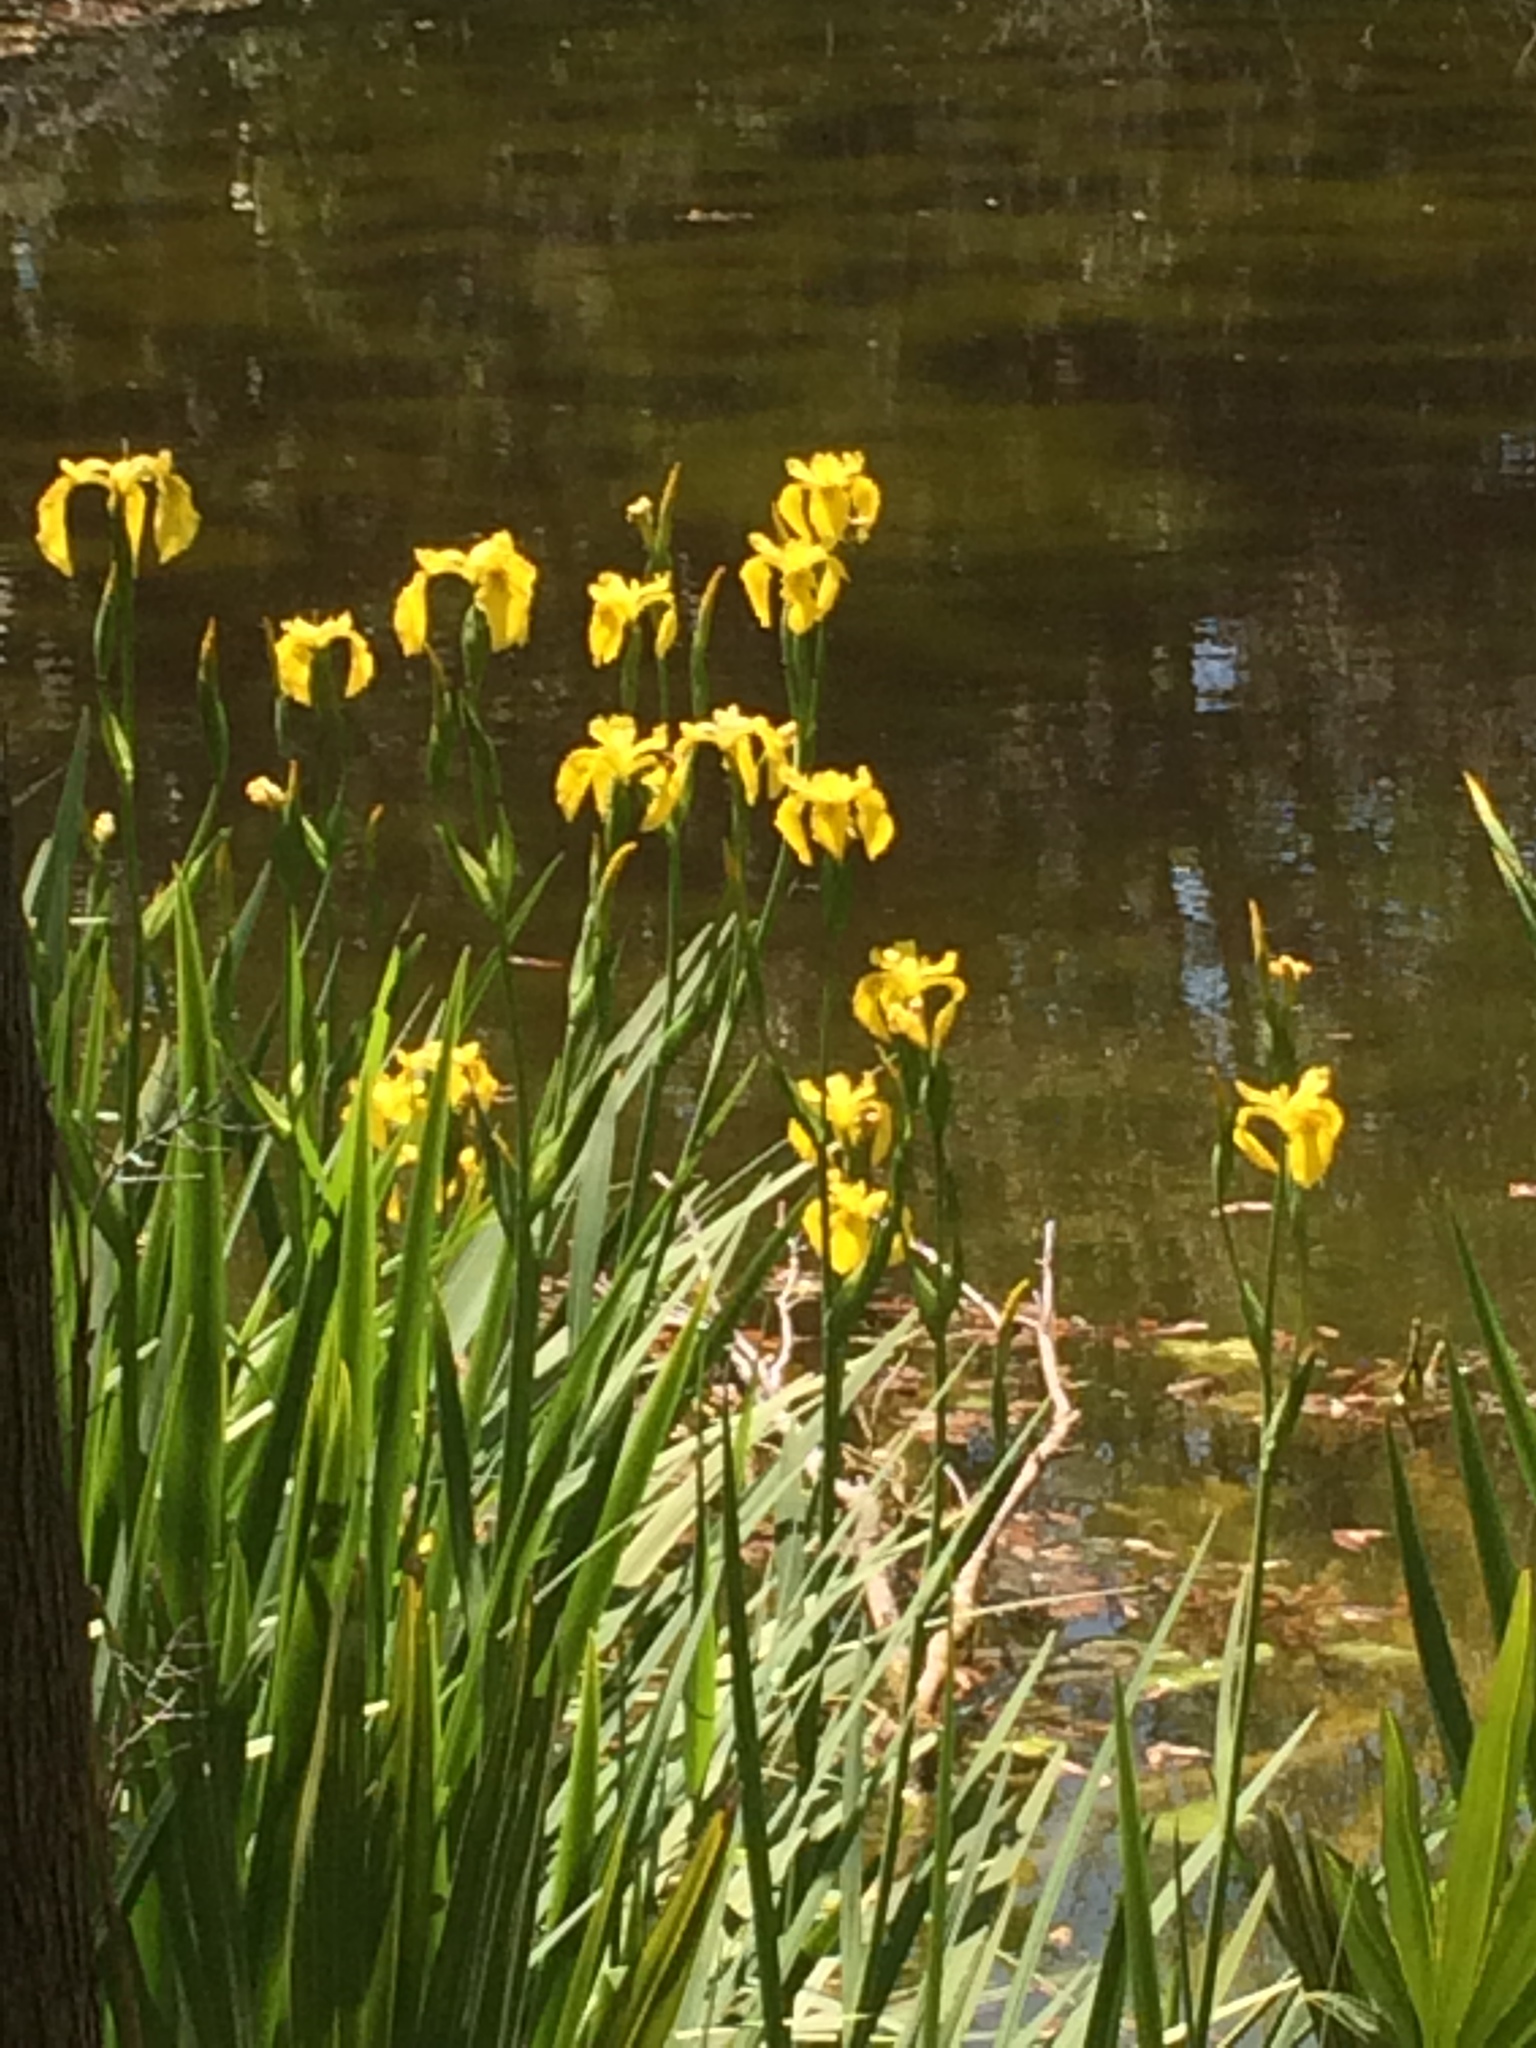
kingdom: Plantae
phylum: Tracheophyta
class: Liliopsida
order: Asparagales
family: Iridaceae
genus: Iris
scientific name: Iris pseudacorus
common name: Yellow flag
